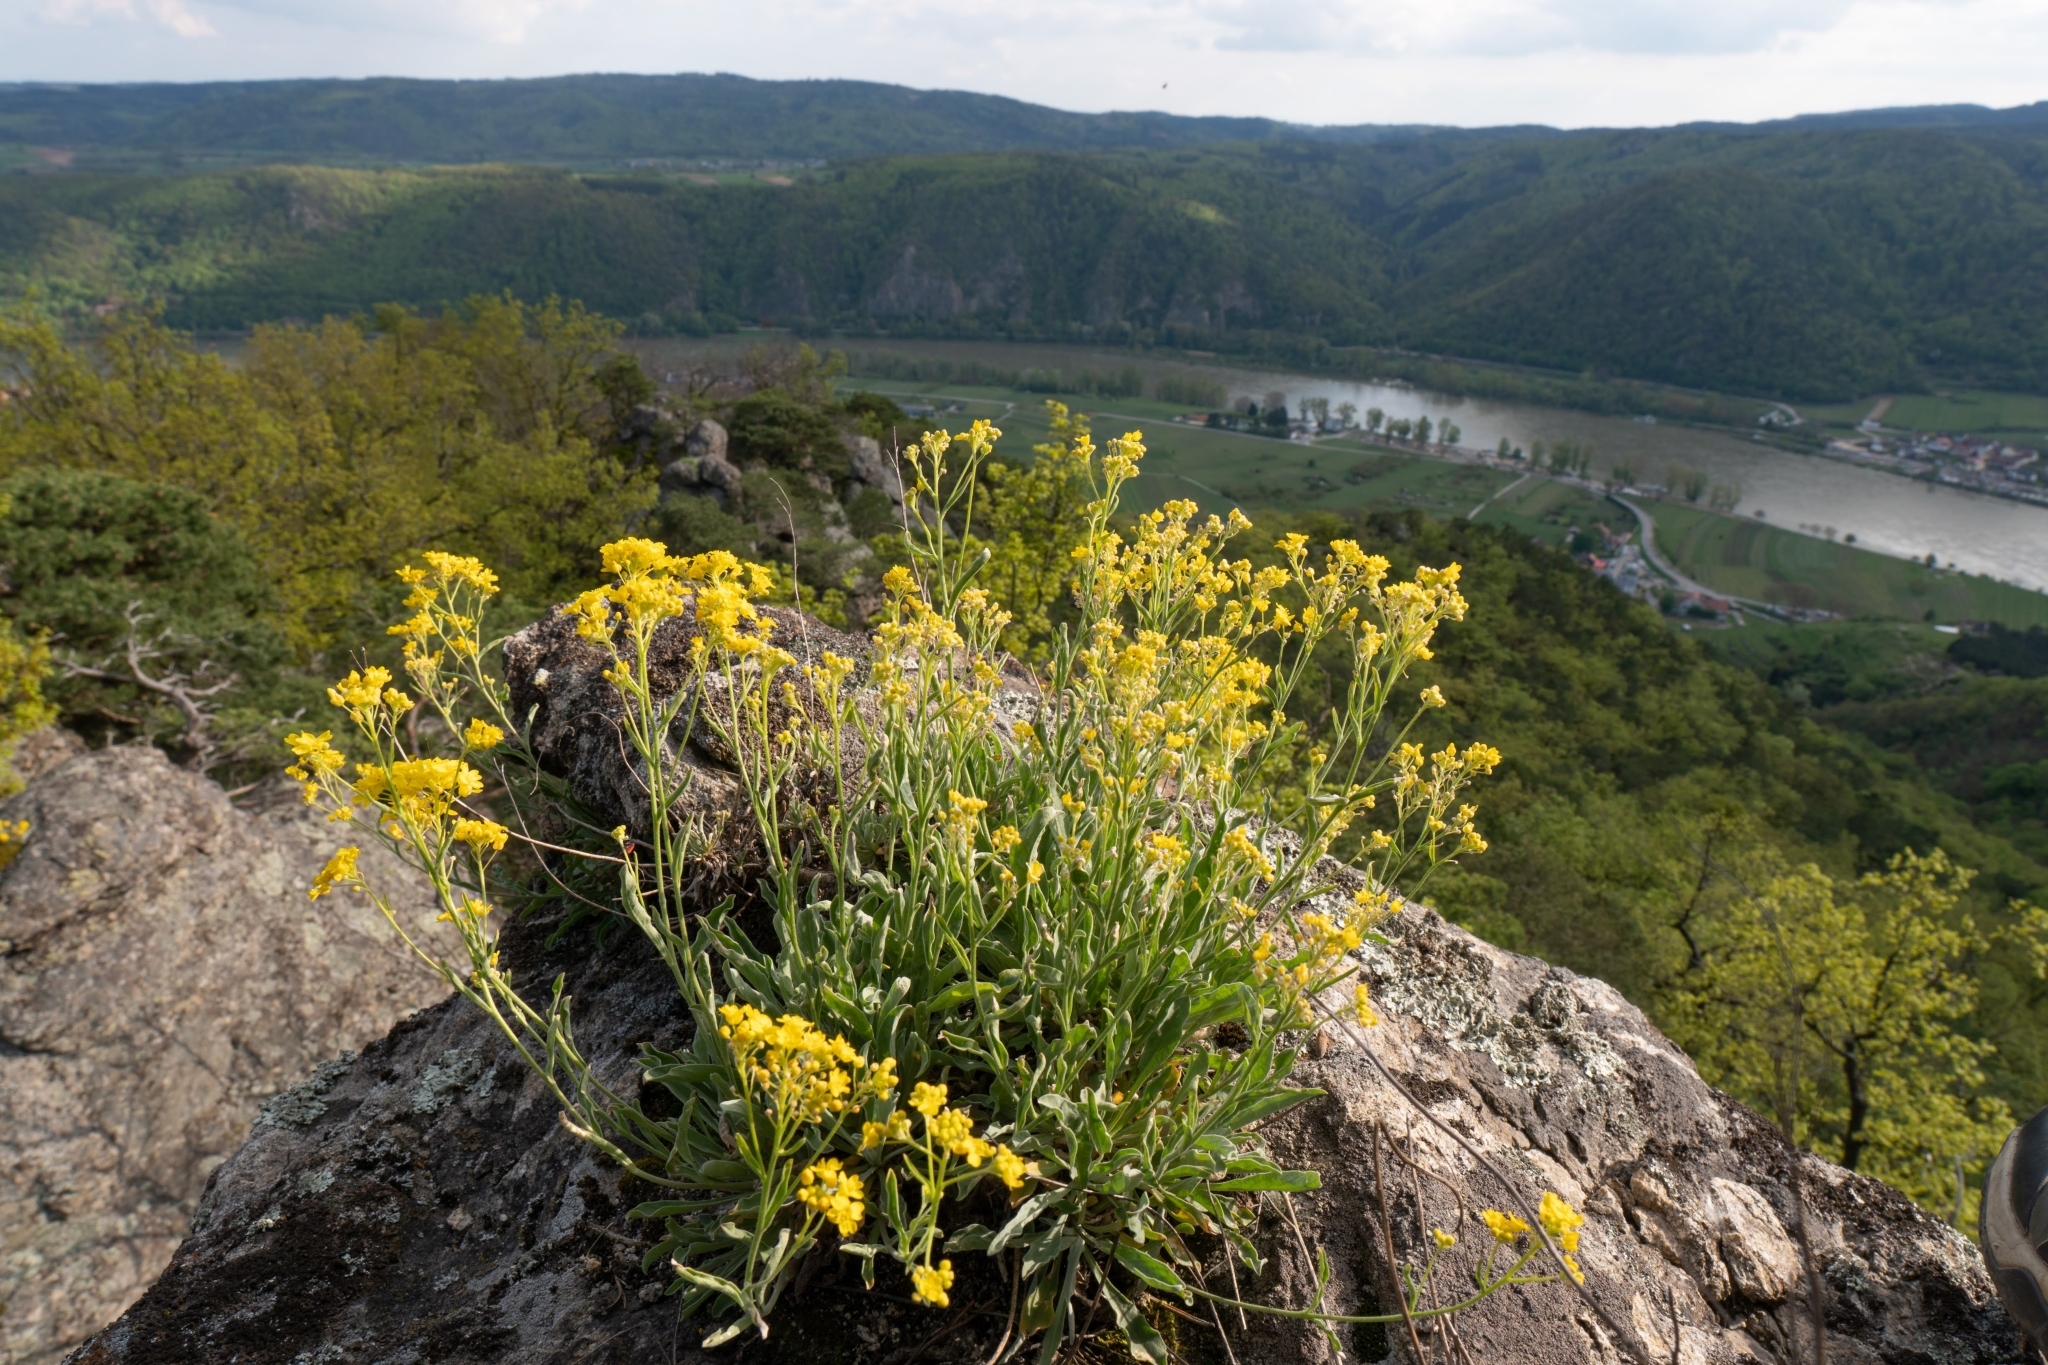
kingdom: Plantae
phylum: Tracheophyta
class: Magnoliopsida
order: Brassicales
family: Brassicaceae
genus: Aurinia
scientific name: Aurinia saxatilis
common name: Golden-tuft alyssum
